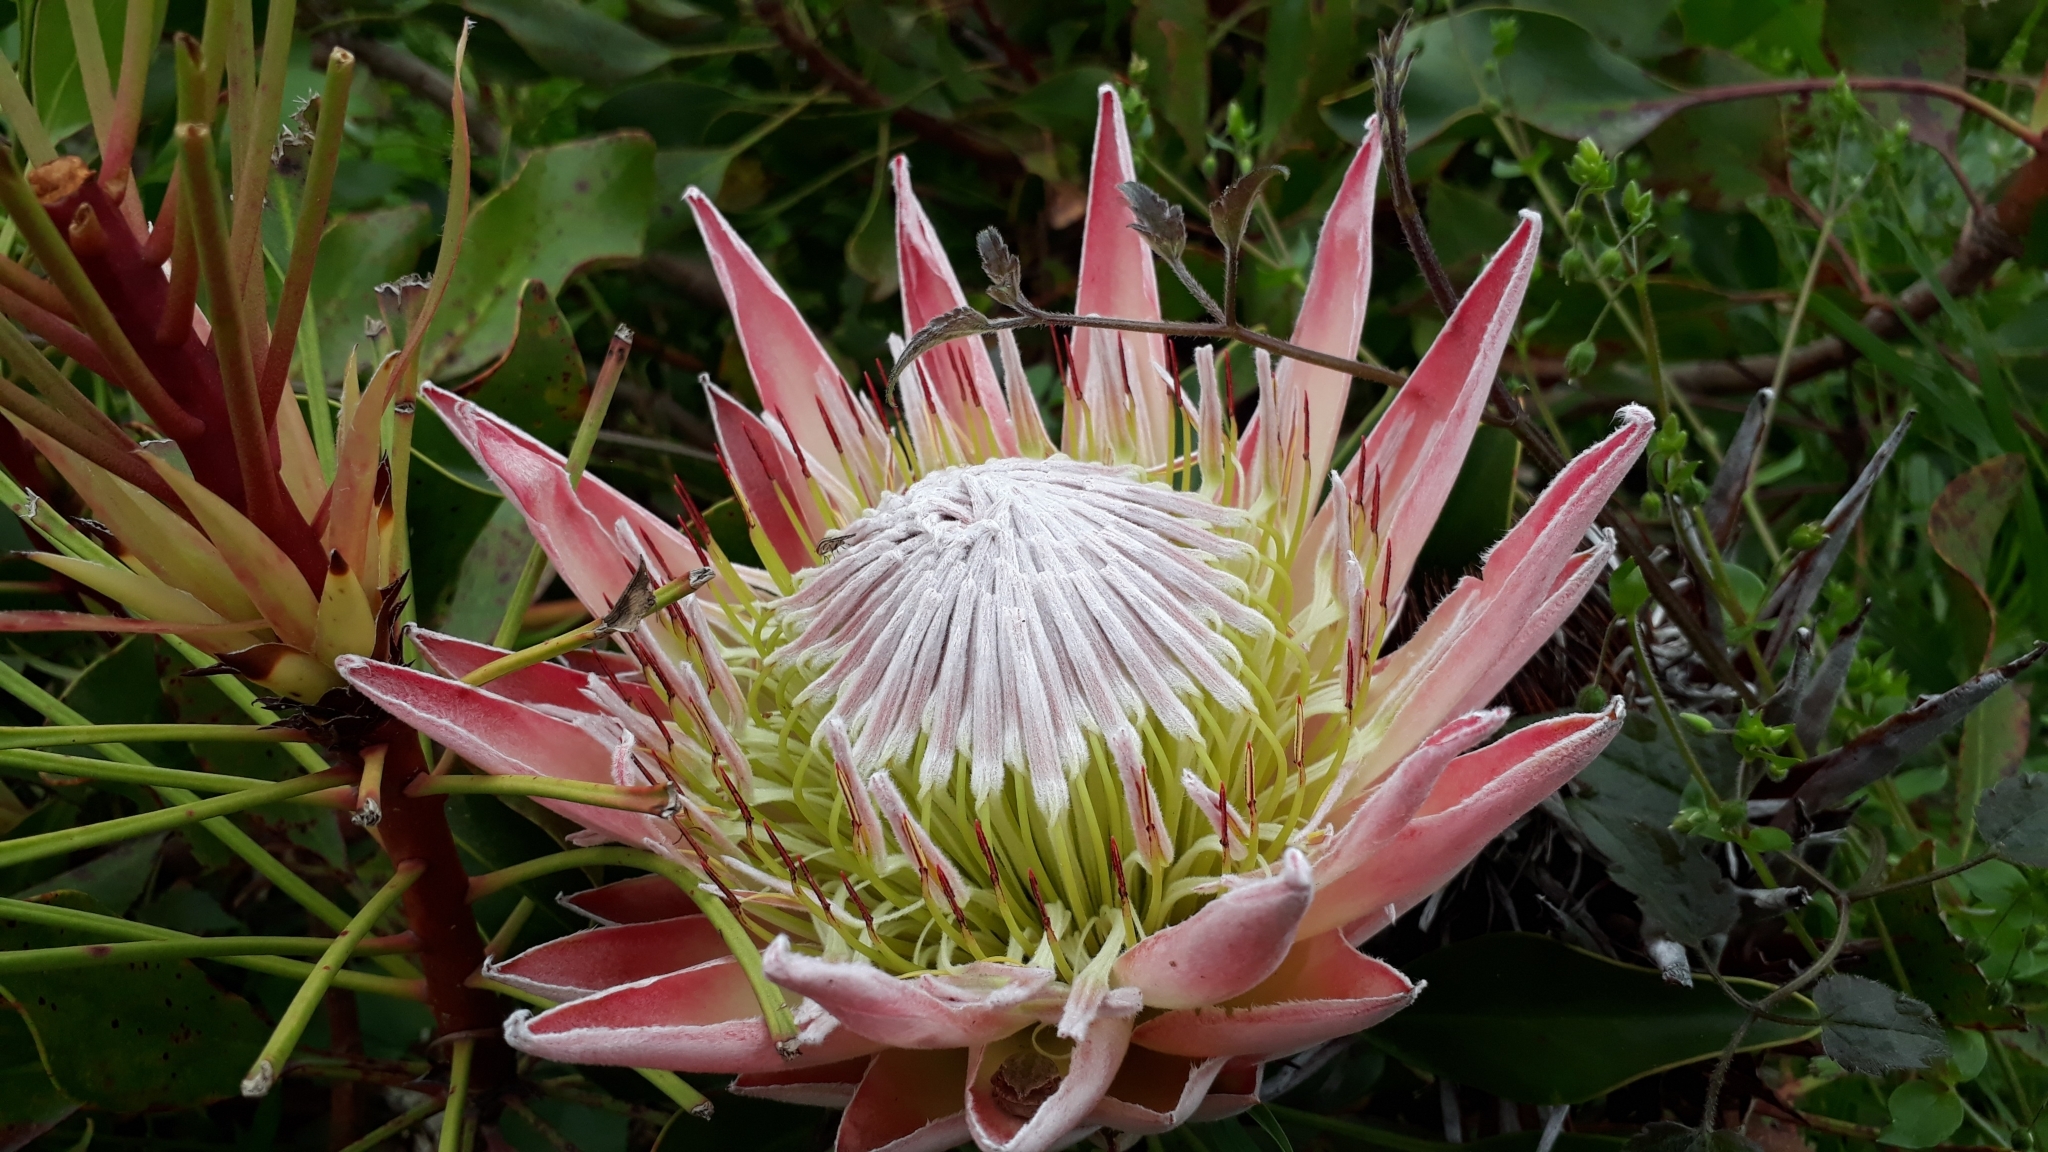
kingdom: Plantae
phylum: Tracheophyta
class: Magnoliopsida
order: Proteales
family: Proteaceae
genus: Protea
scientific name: Protea cynaroides
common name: King protea
